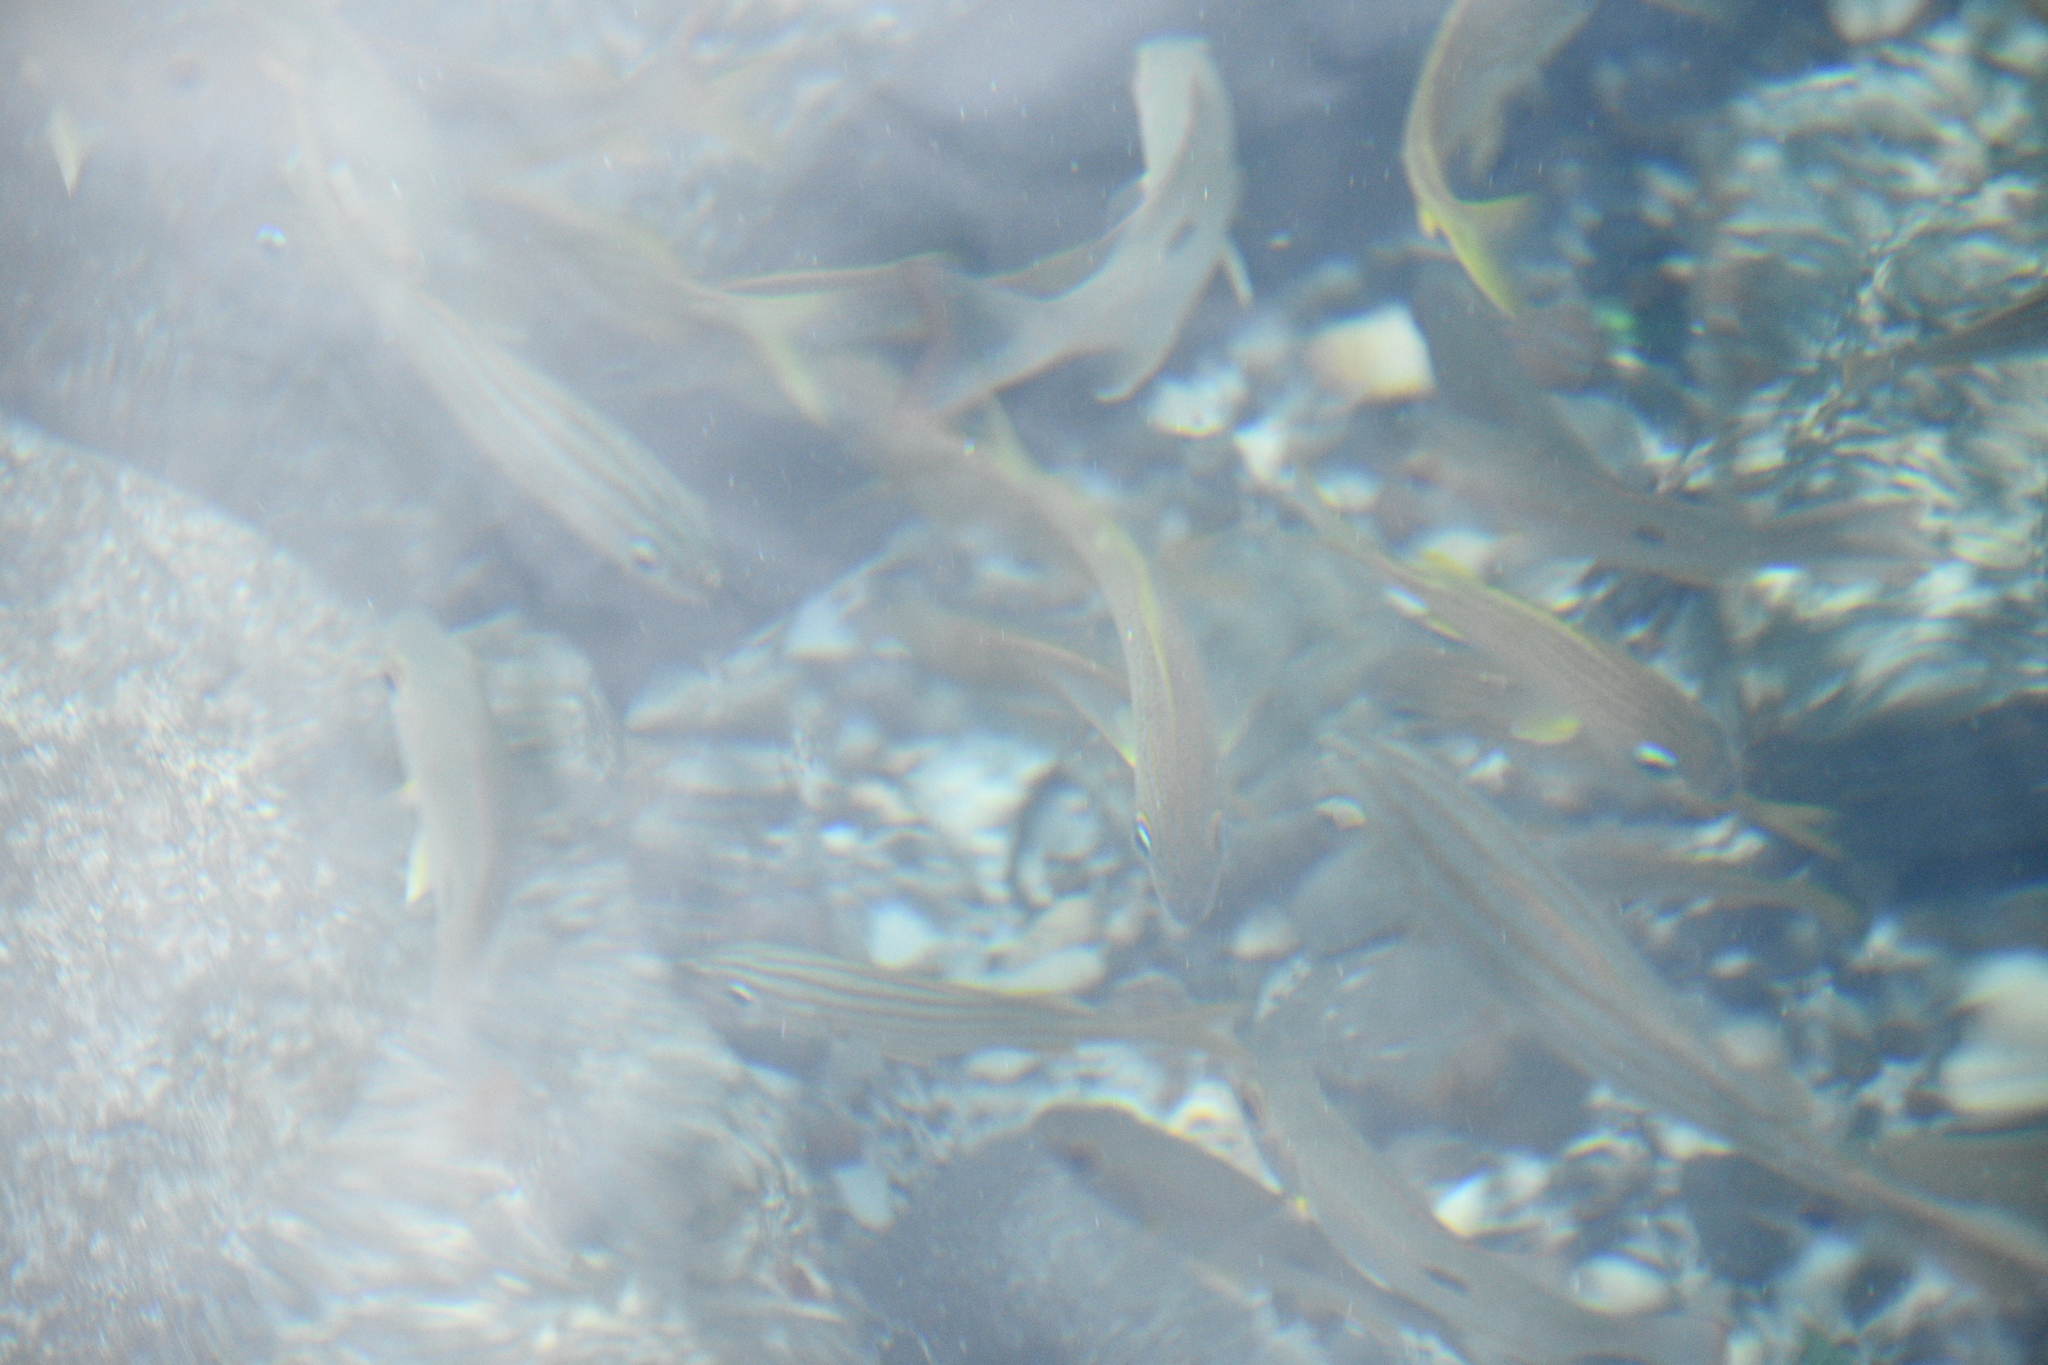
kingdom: Animalia
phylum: Chordata
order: Perciformes
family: Haemulidae
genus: Haemulon
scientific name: Haemulon chrysargyreum
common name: Smallmouth grunt
